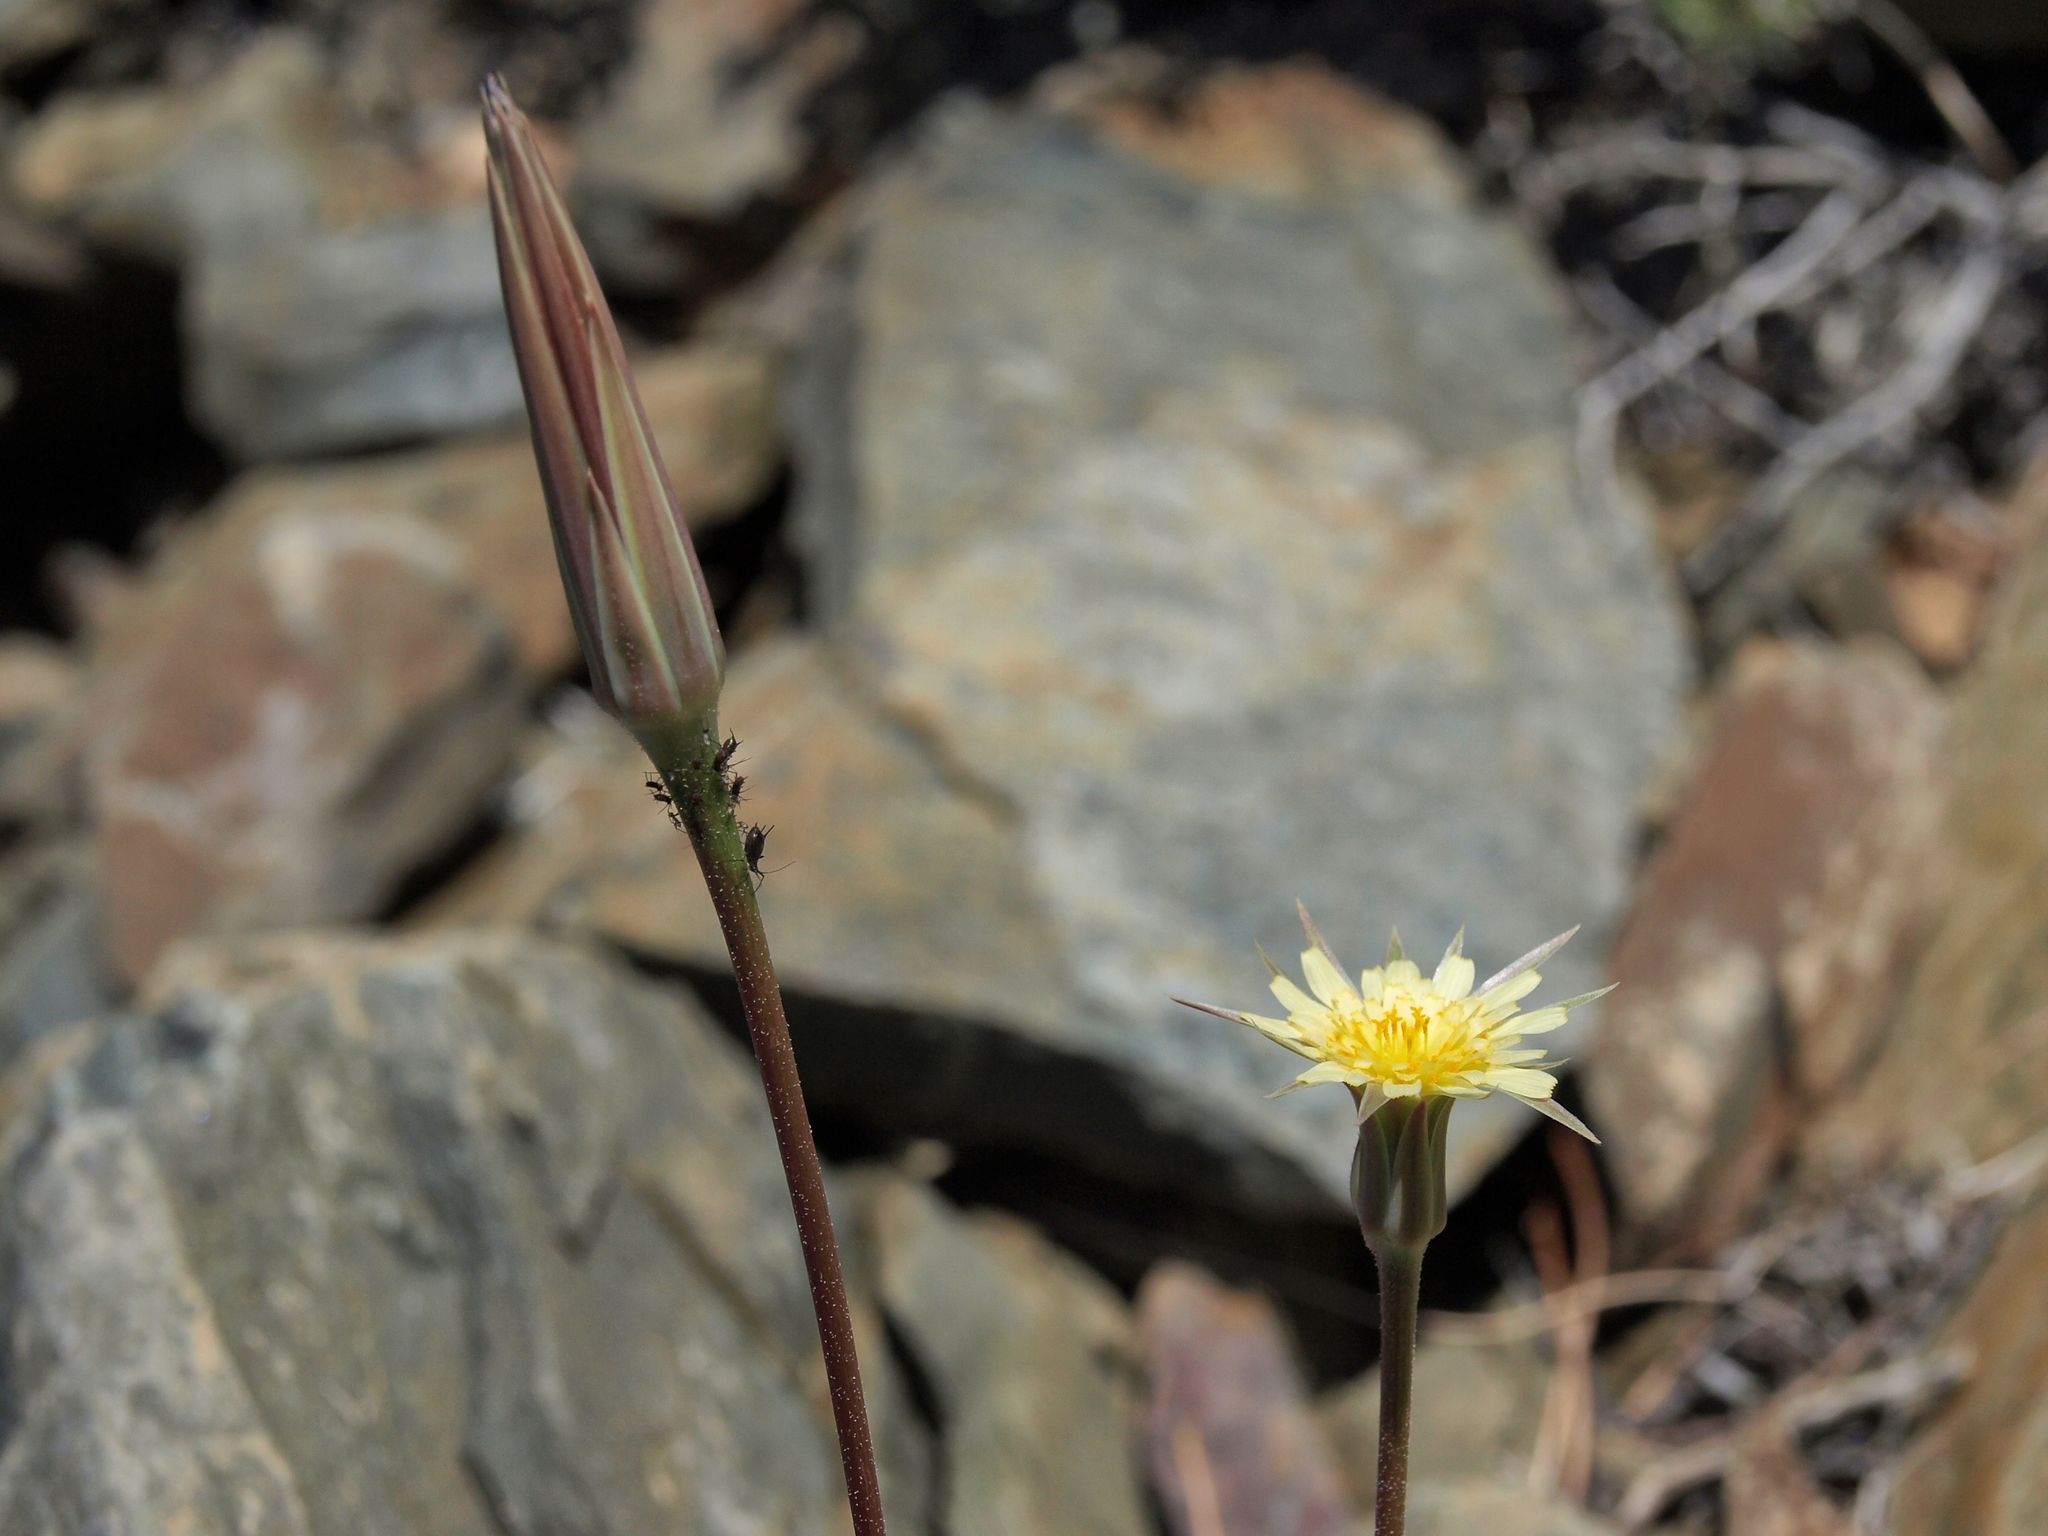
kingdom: Plantae
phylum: Tracheophyta
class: Magnoliopsida
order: Asterales
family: Asteraceae
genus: Microseris
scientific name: Microseris lindleyi
